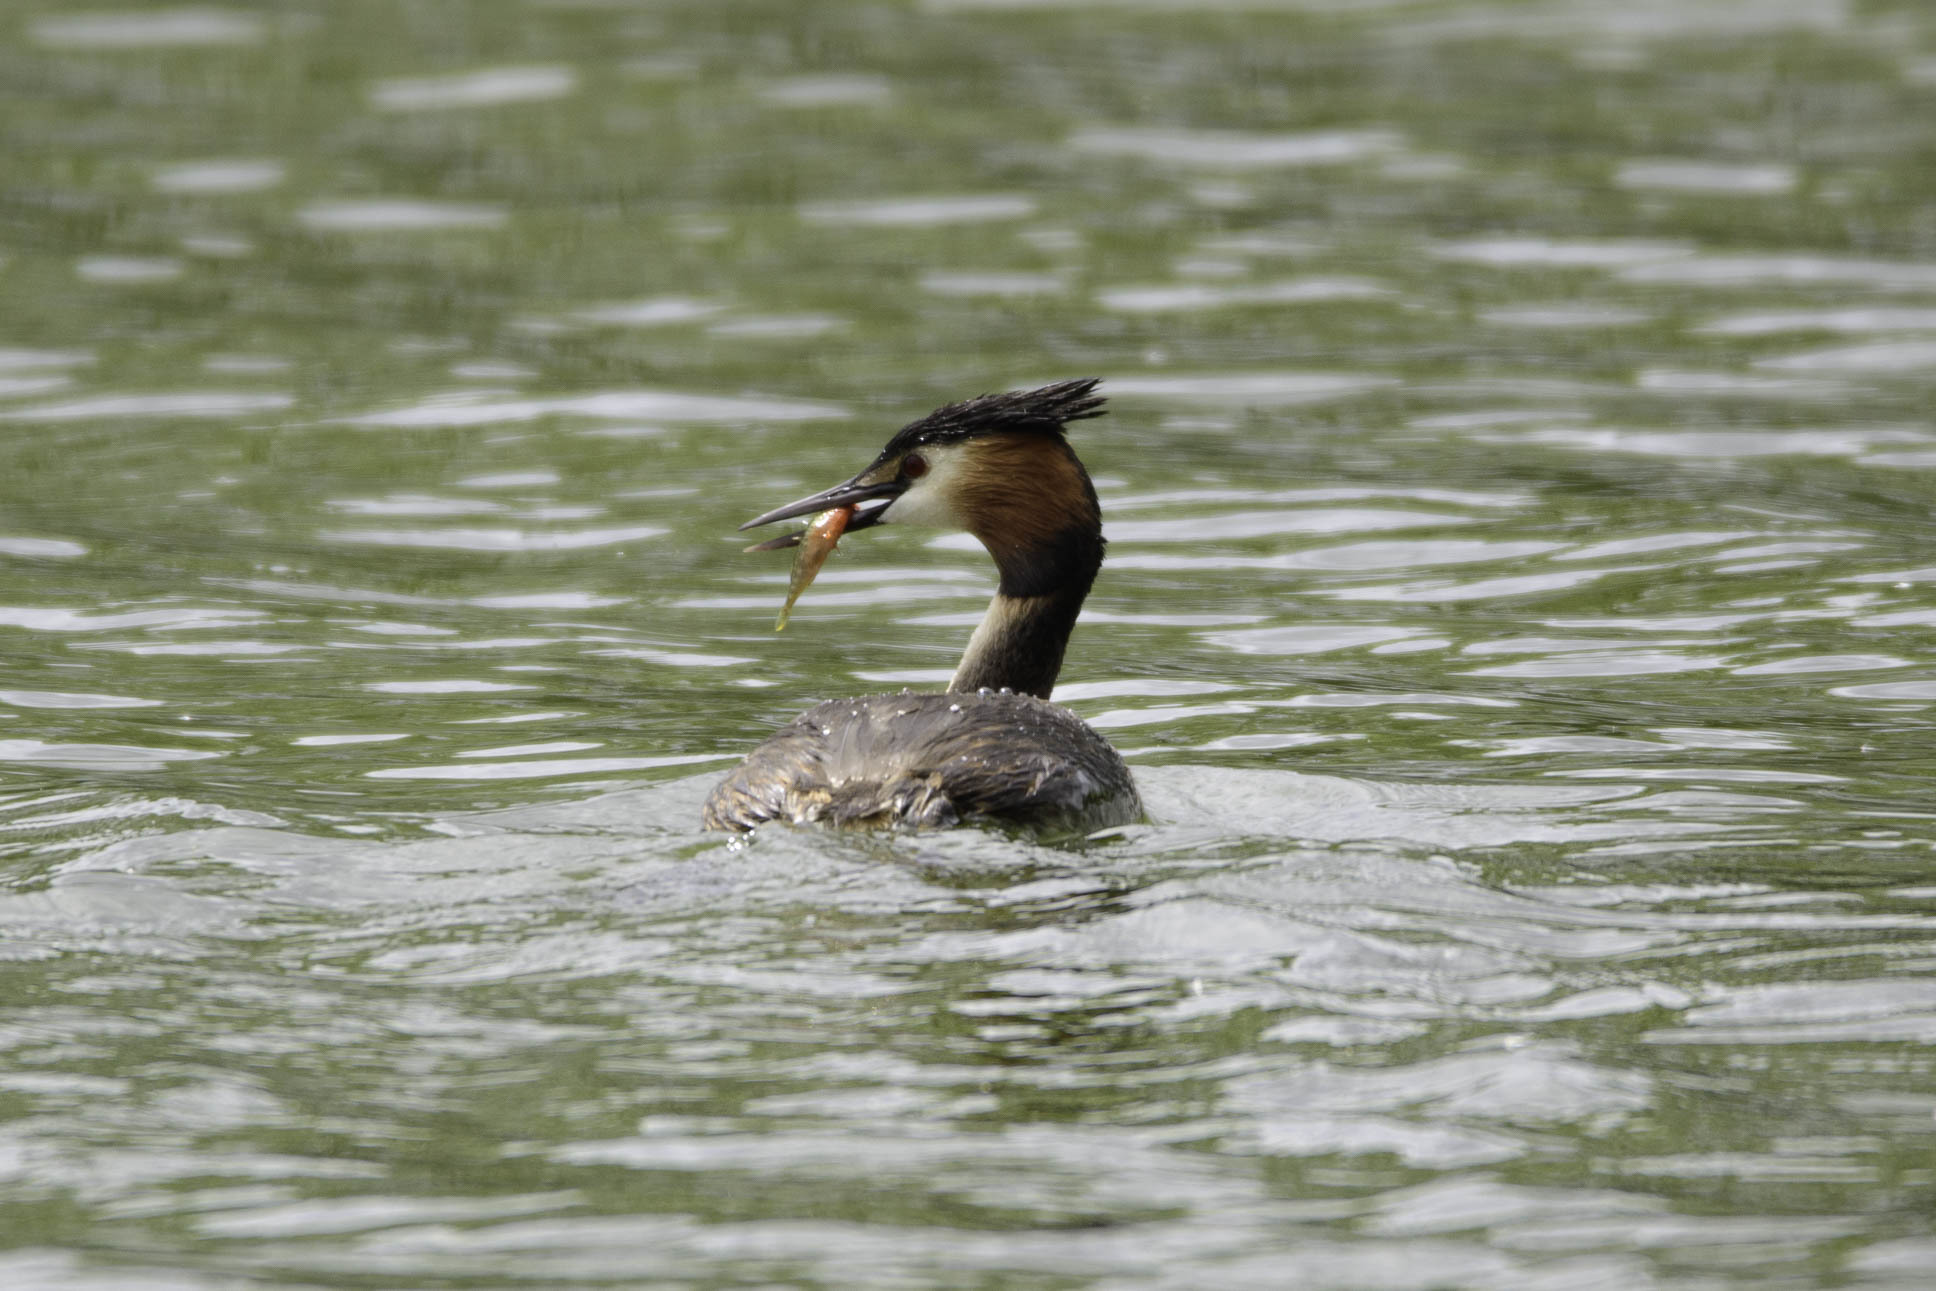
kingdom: Animalia
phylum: Chordata
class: Aves
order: Podicipediformes
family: Podicipedidae
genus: Podiceps
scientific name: Podiceps cristatus
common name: Great crested grebe
